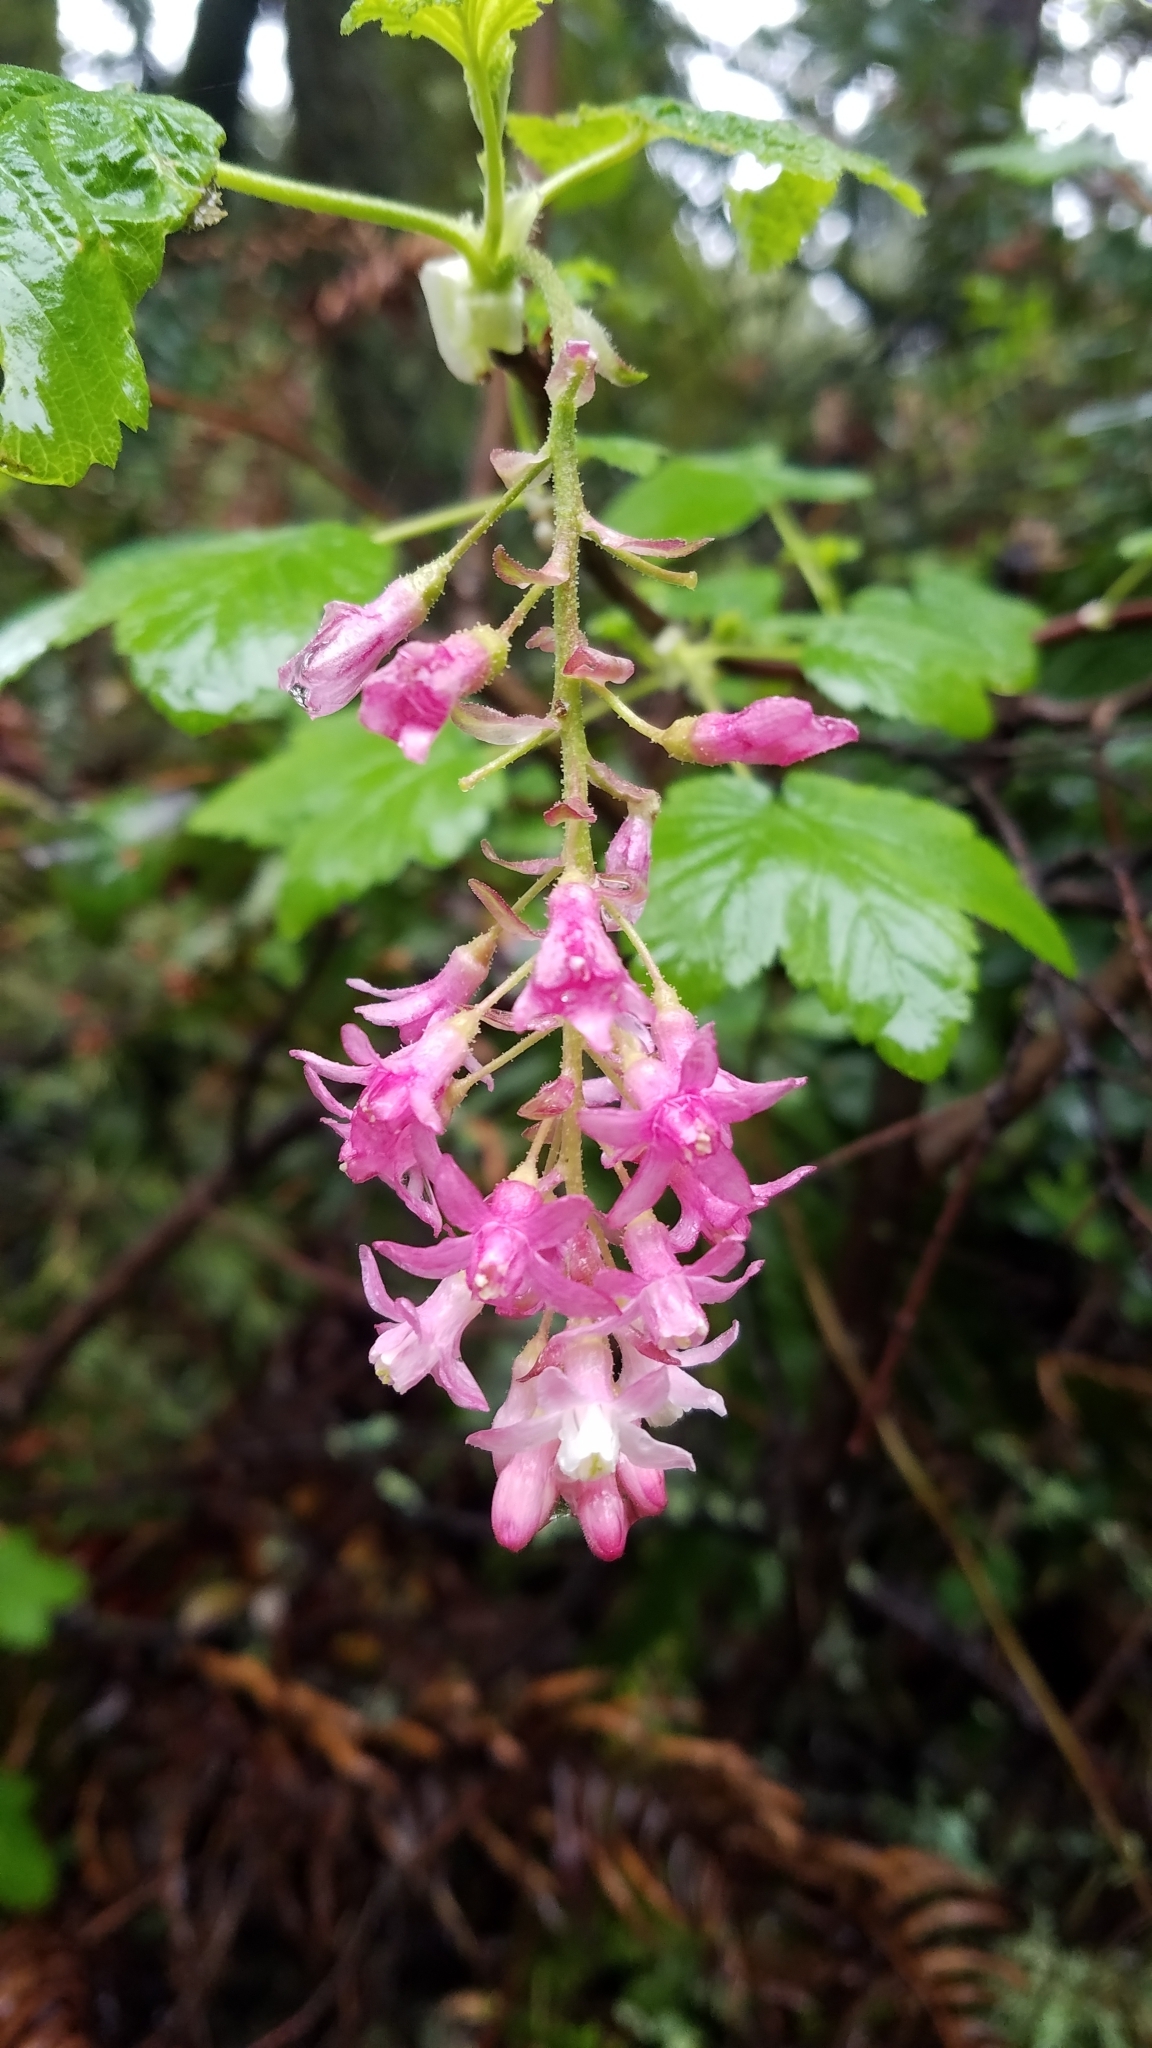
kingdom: Plantae
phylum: Tracheophyta
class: Magnoliopsida
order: Saxifragales
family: Grossulariaceae
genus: Ribes
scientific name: Ribes sanguineum
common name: Flowering currant
